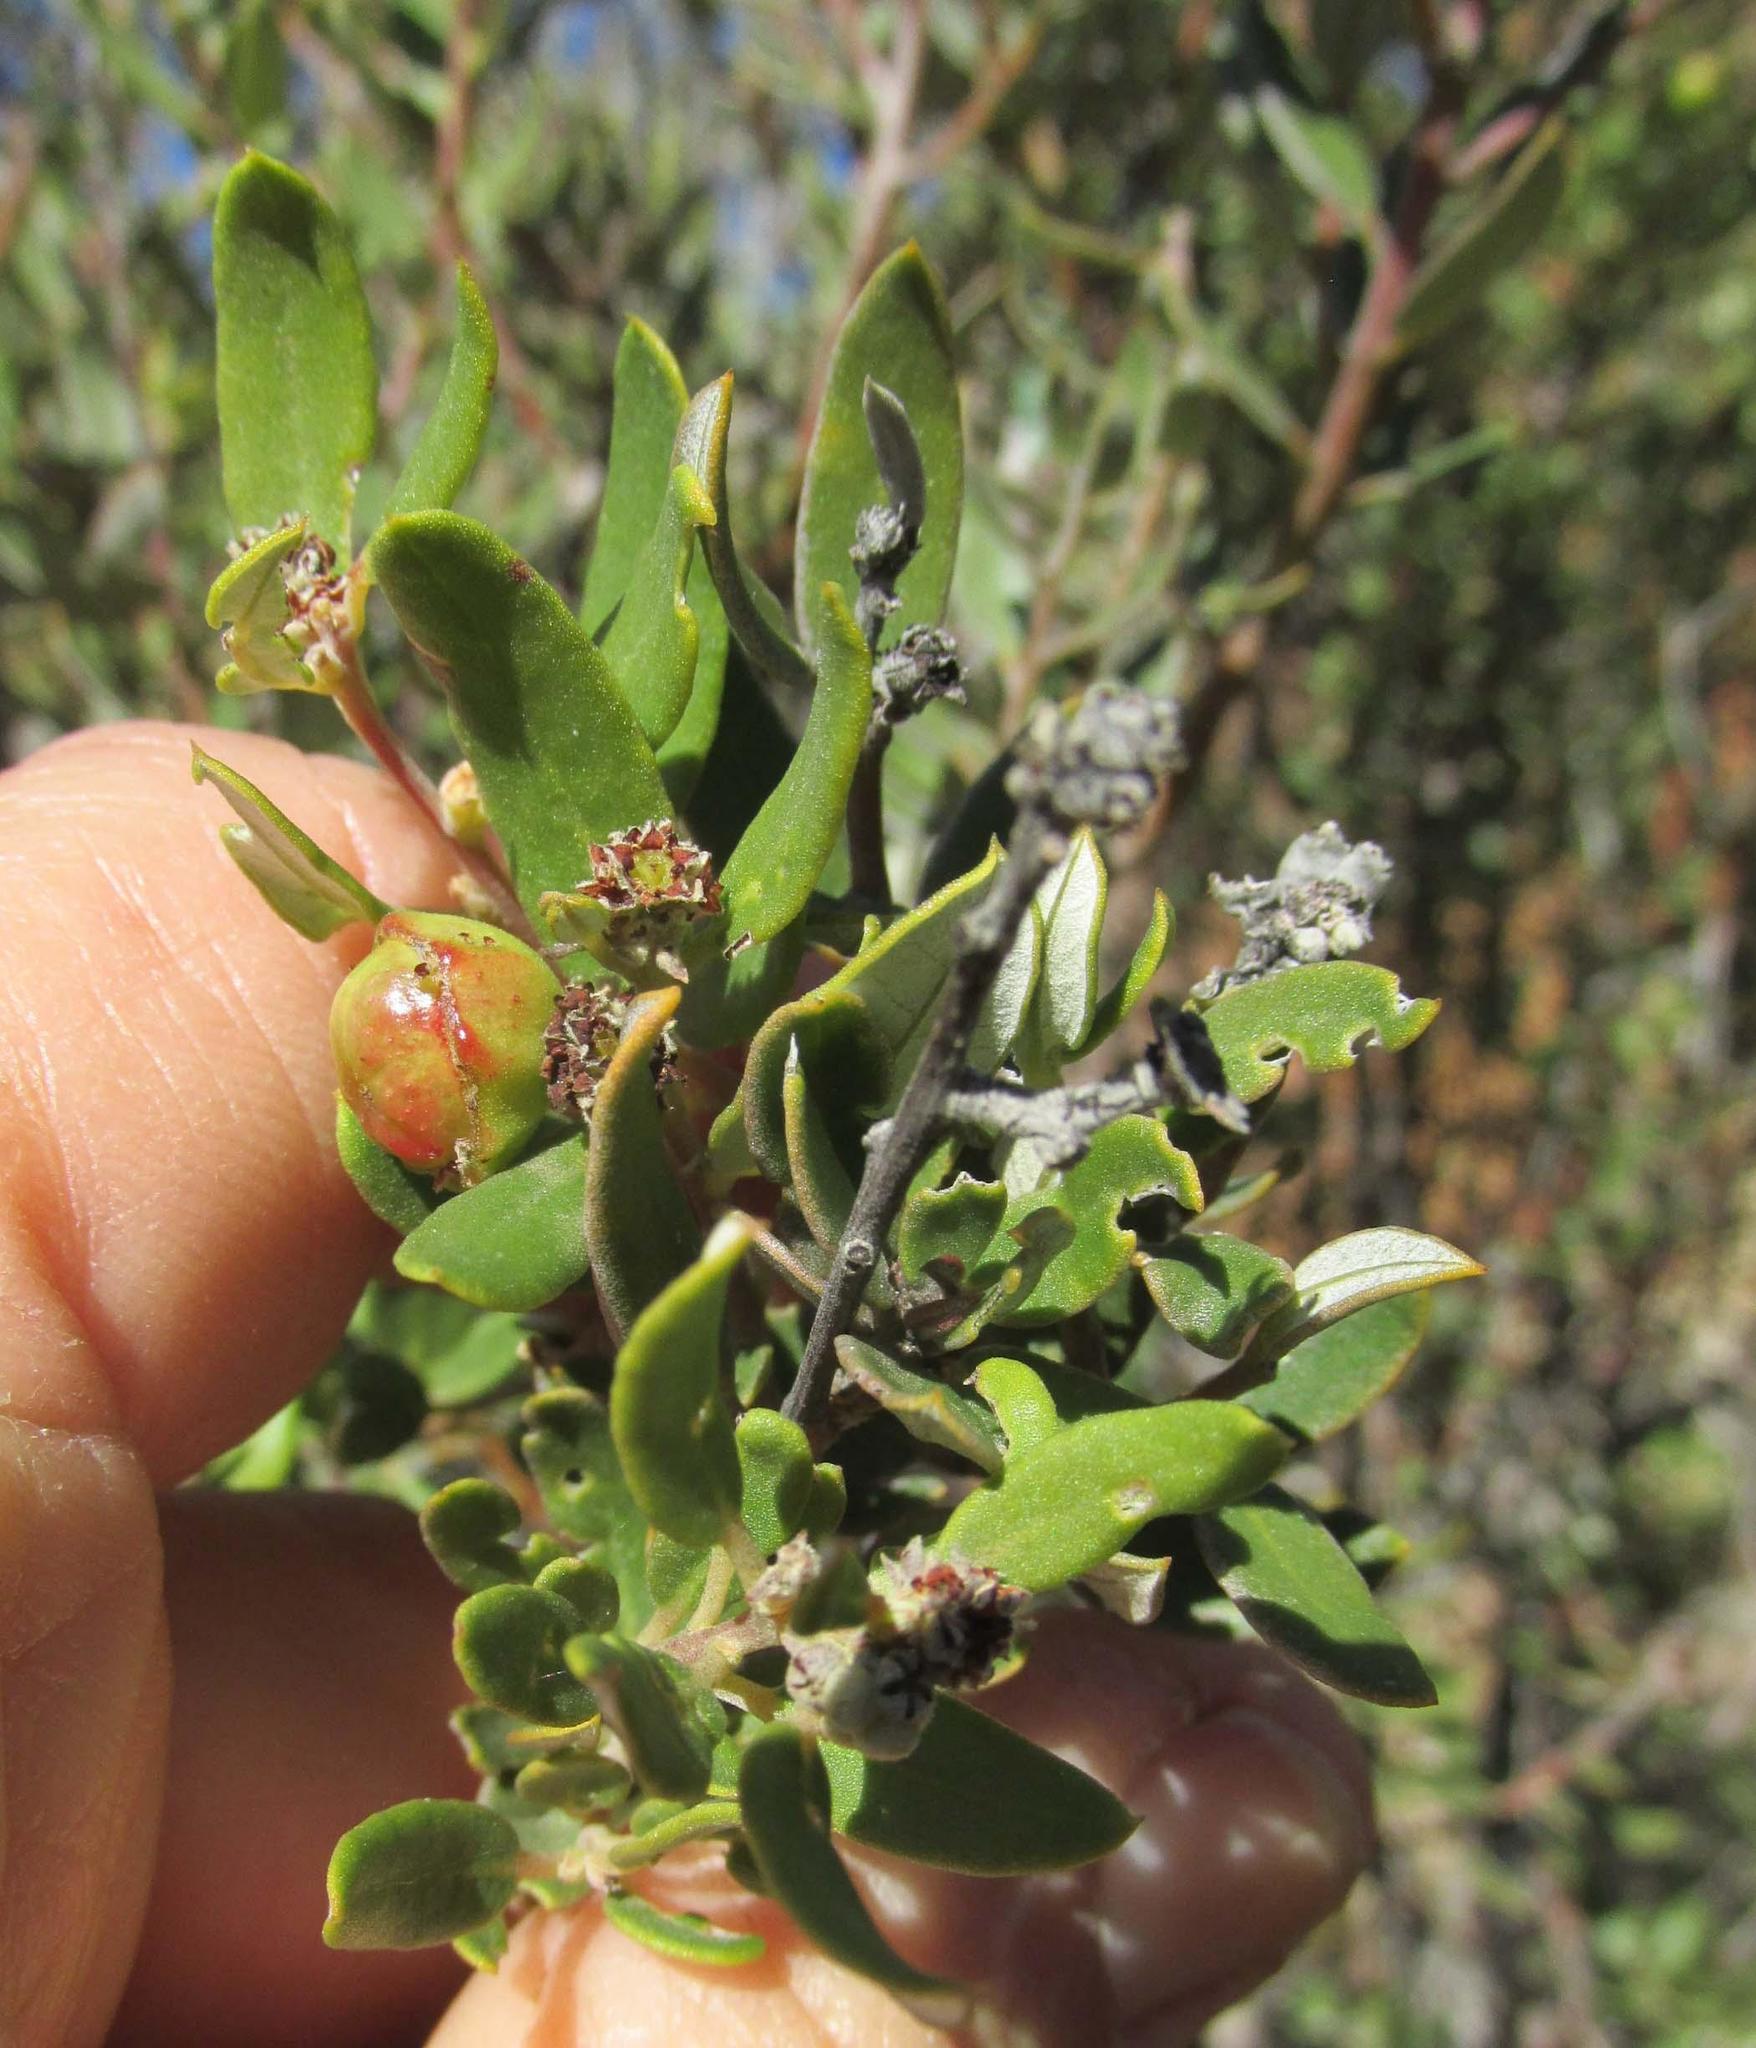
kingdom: Plantae
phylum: Tracheophyta
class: Magnoliopsida
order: Rosales
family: Rhamnaceae
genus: Phylica
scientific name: Phylica oleifolia
